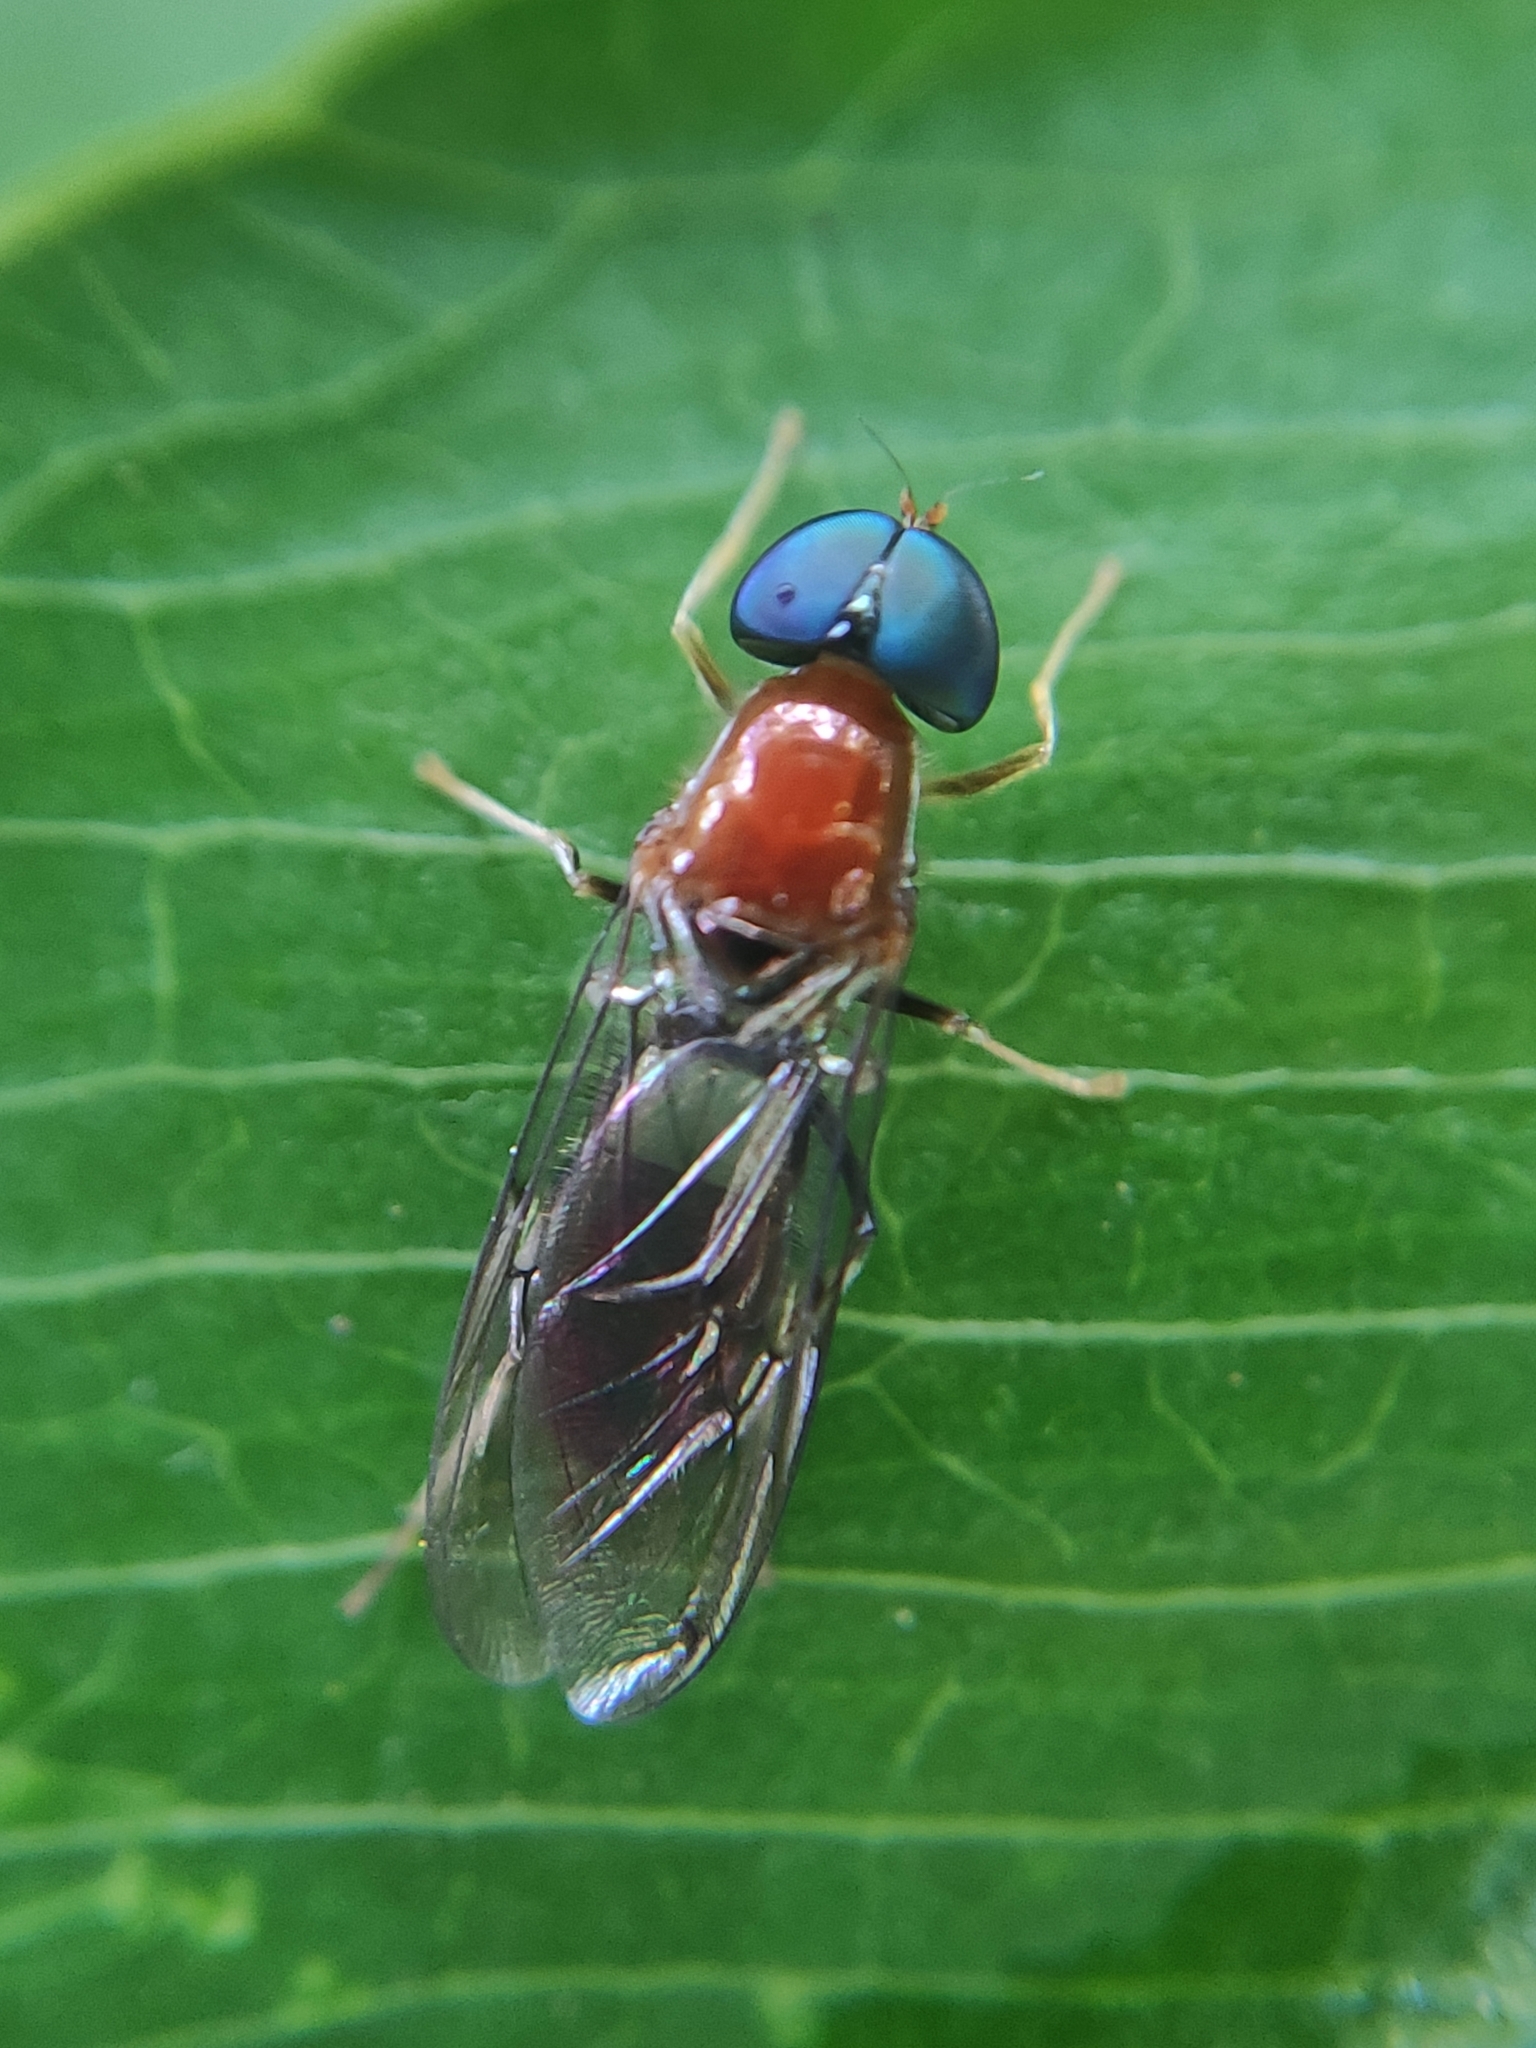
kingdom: Animalia
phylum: Arthropoda
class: Insecta
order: Diptera
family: Stratiomyidae
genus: Sargus
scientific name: Sargus thoracicus
